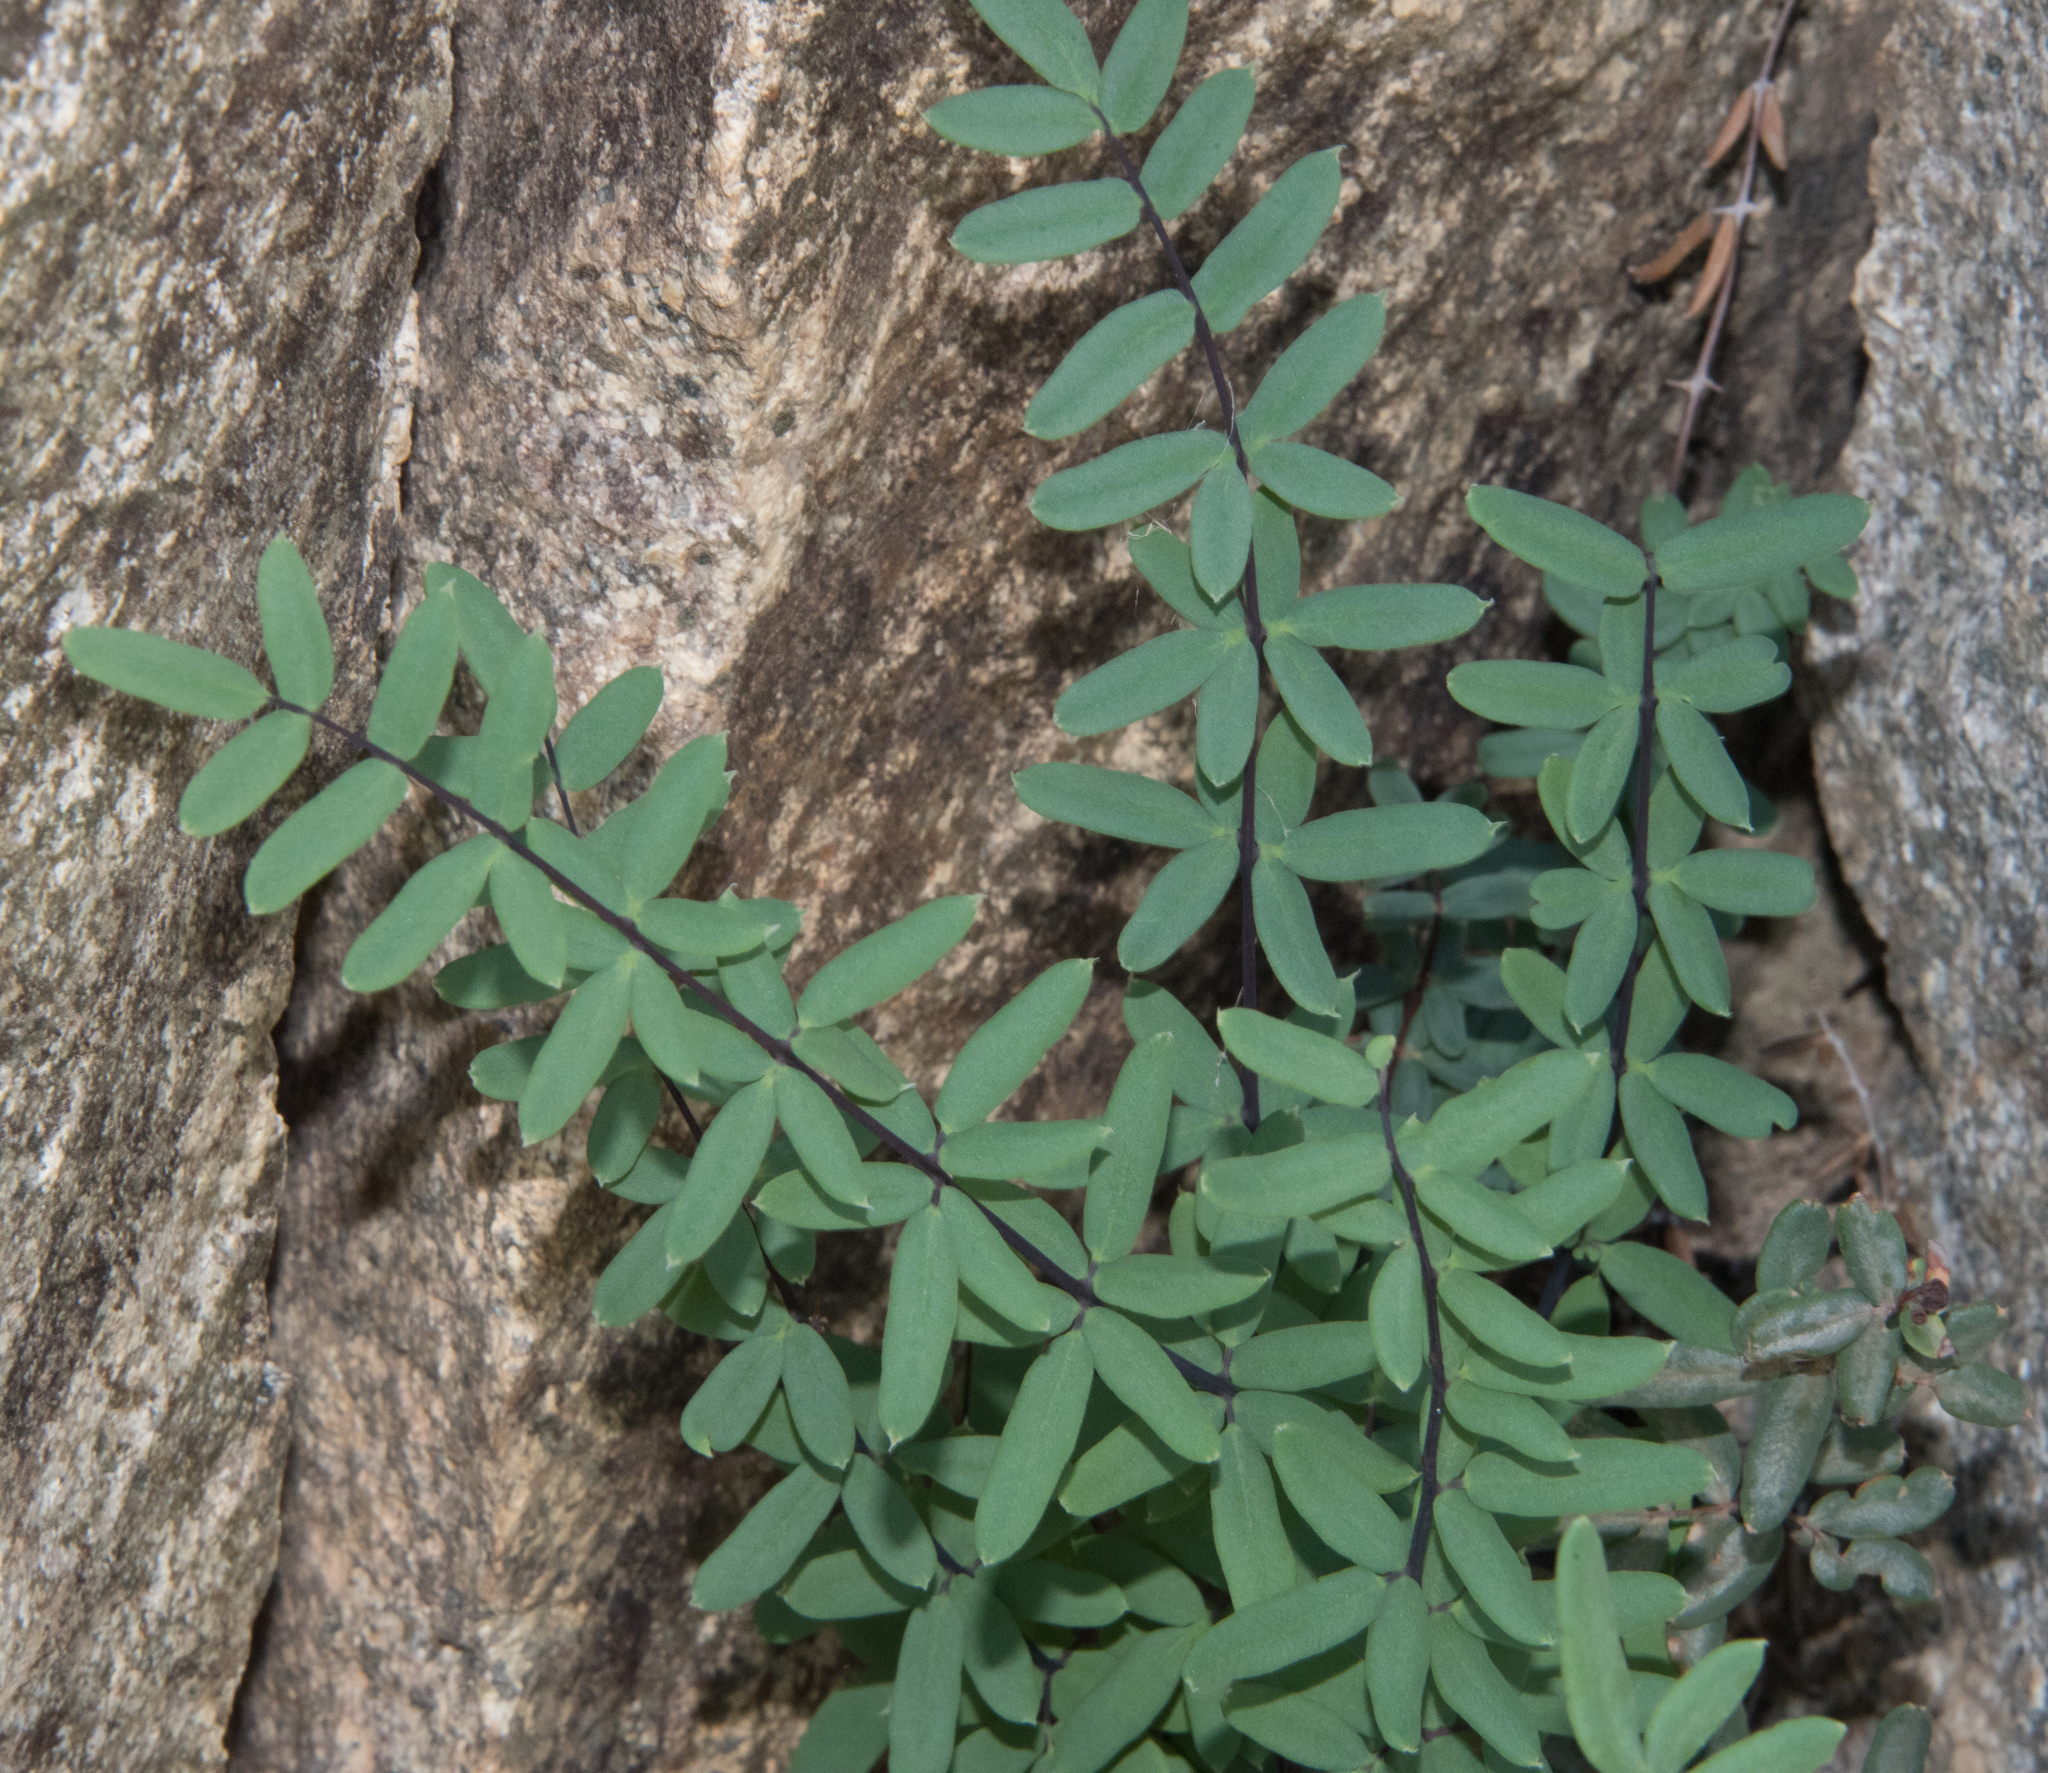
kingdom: Plantae
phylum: Tracheophyta
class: Polypodiopsida
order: Polypodiales
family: Pteridaceae
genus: Pellaea
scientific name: Pellaea wrightiana
